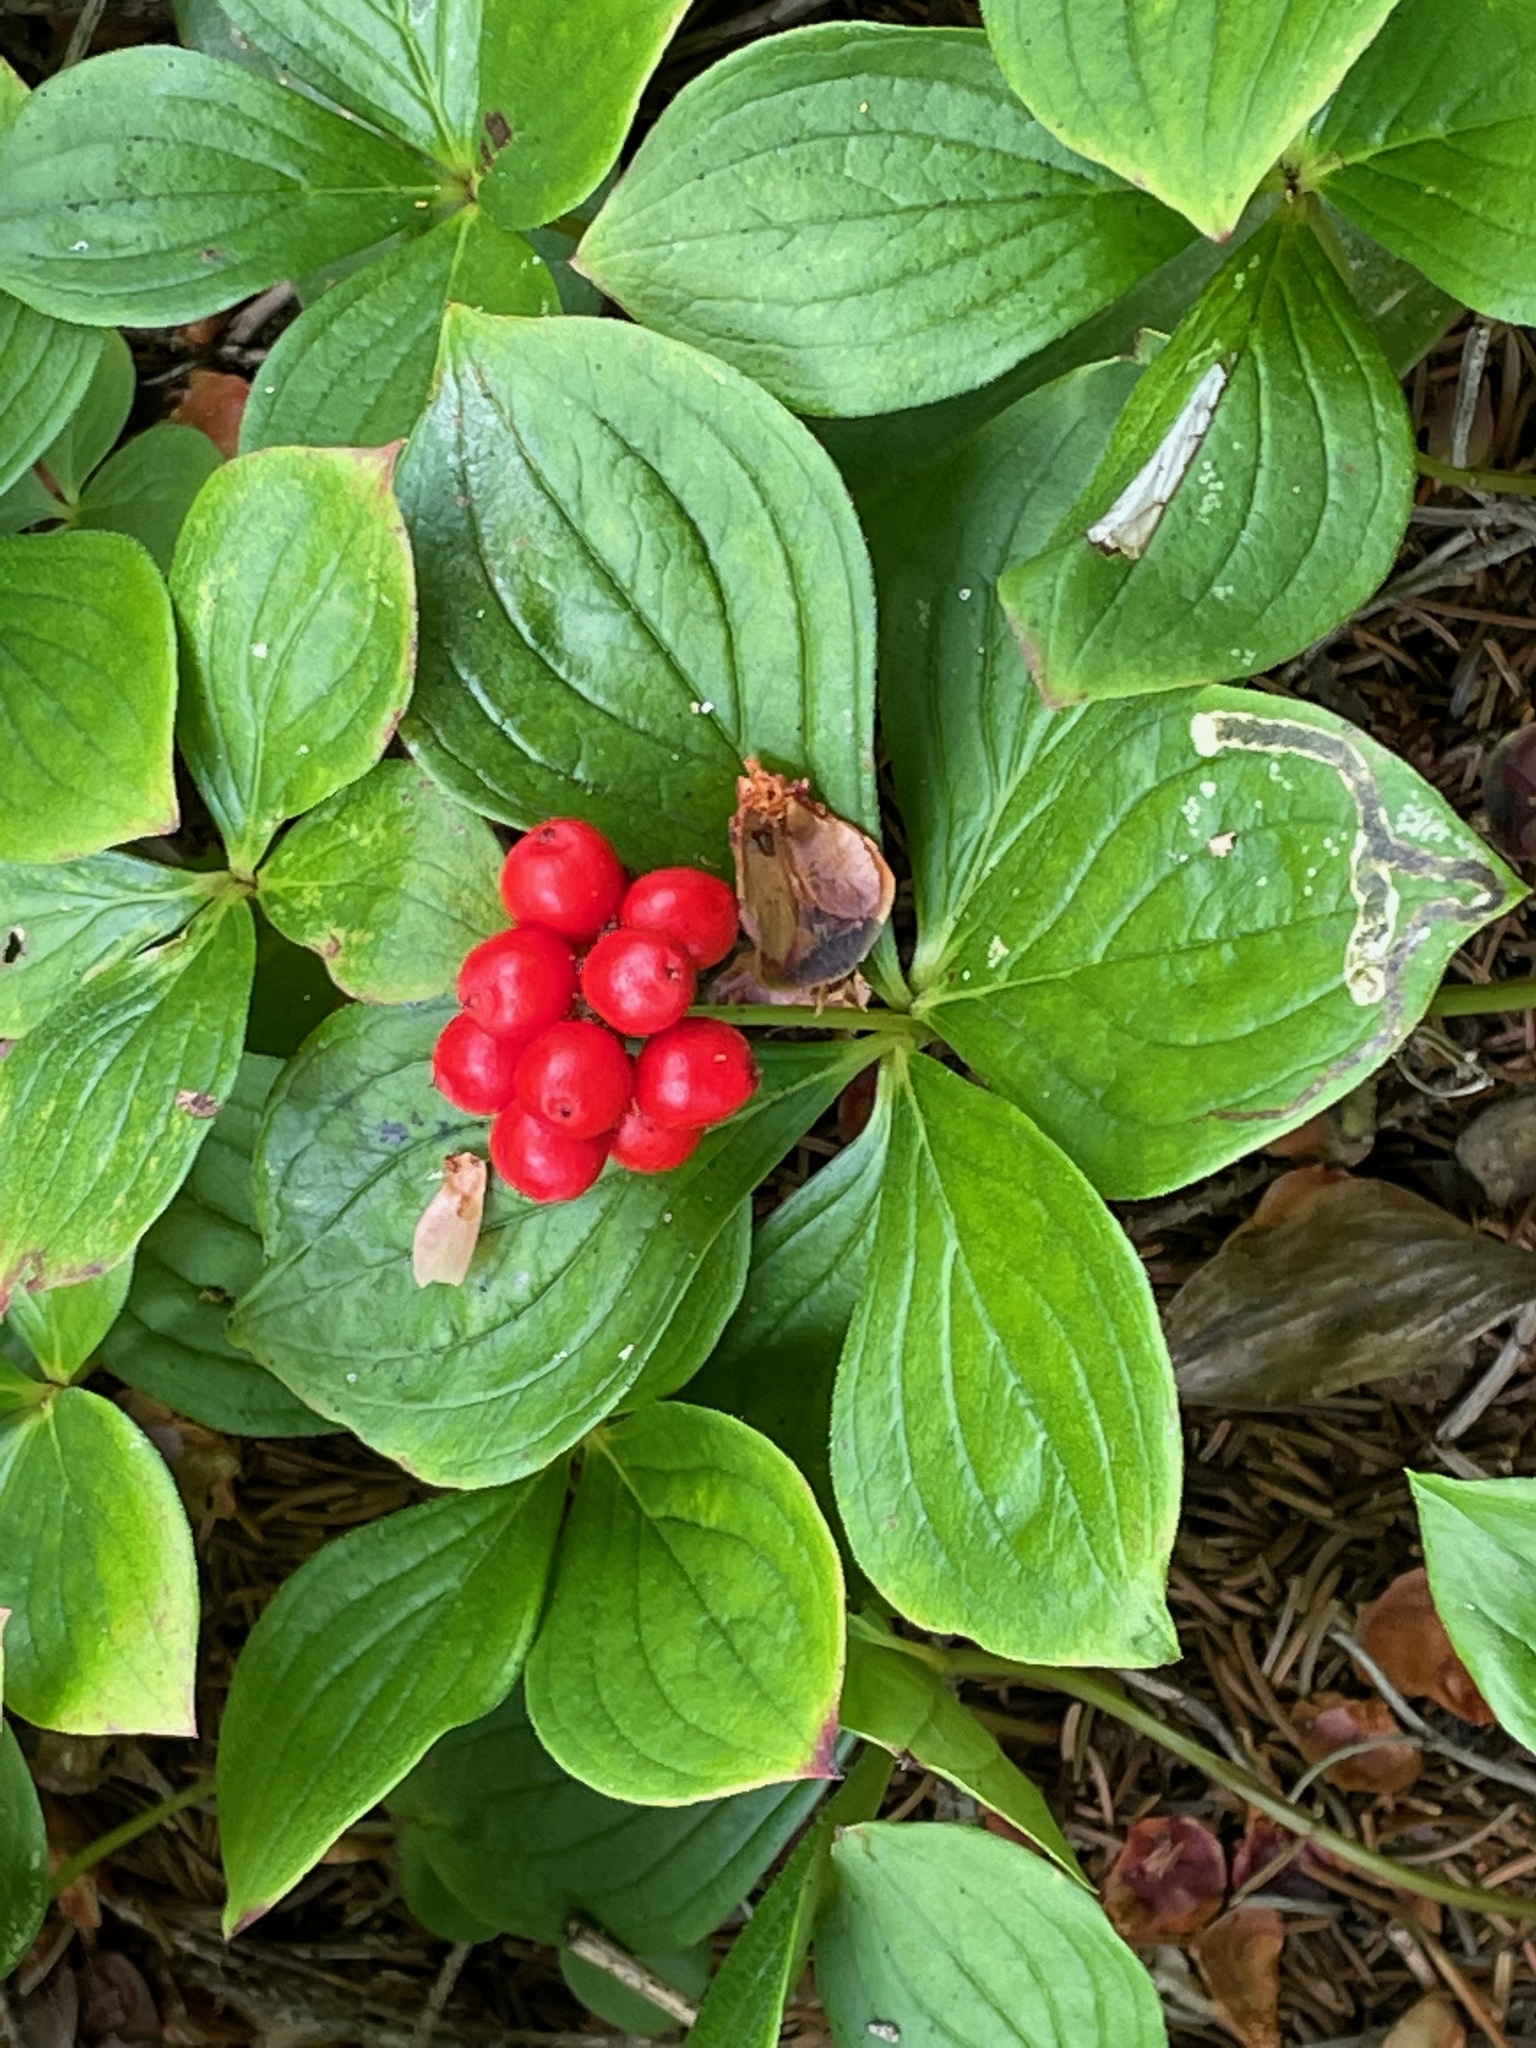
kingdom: Plantae
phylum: Tracheophyta
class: Magnoliopsida
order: Cornales
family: Cornaceae
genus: Cornus
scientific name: Cornus canadensis
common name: Creeping dogwood
